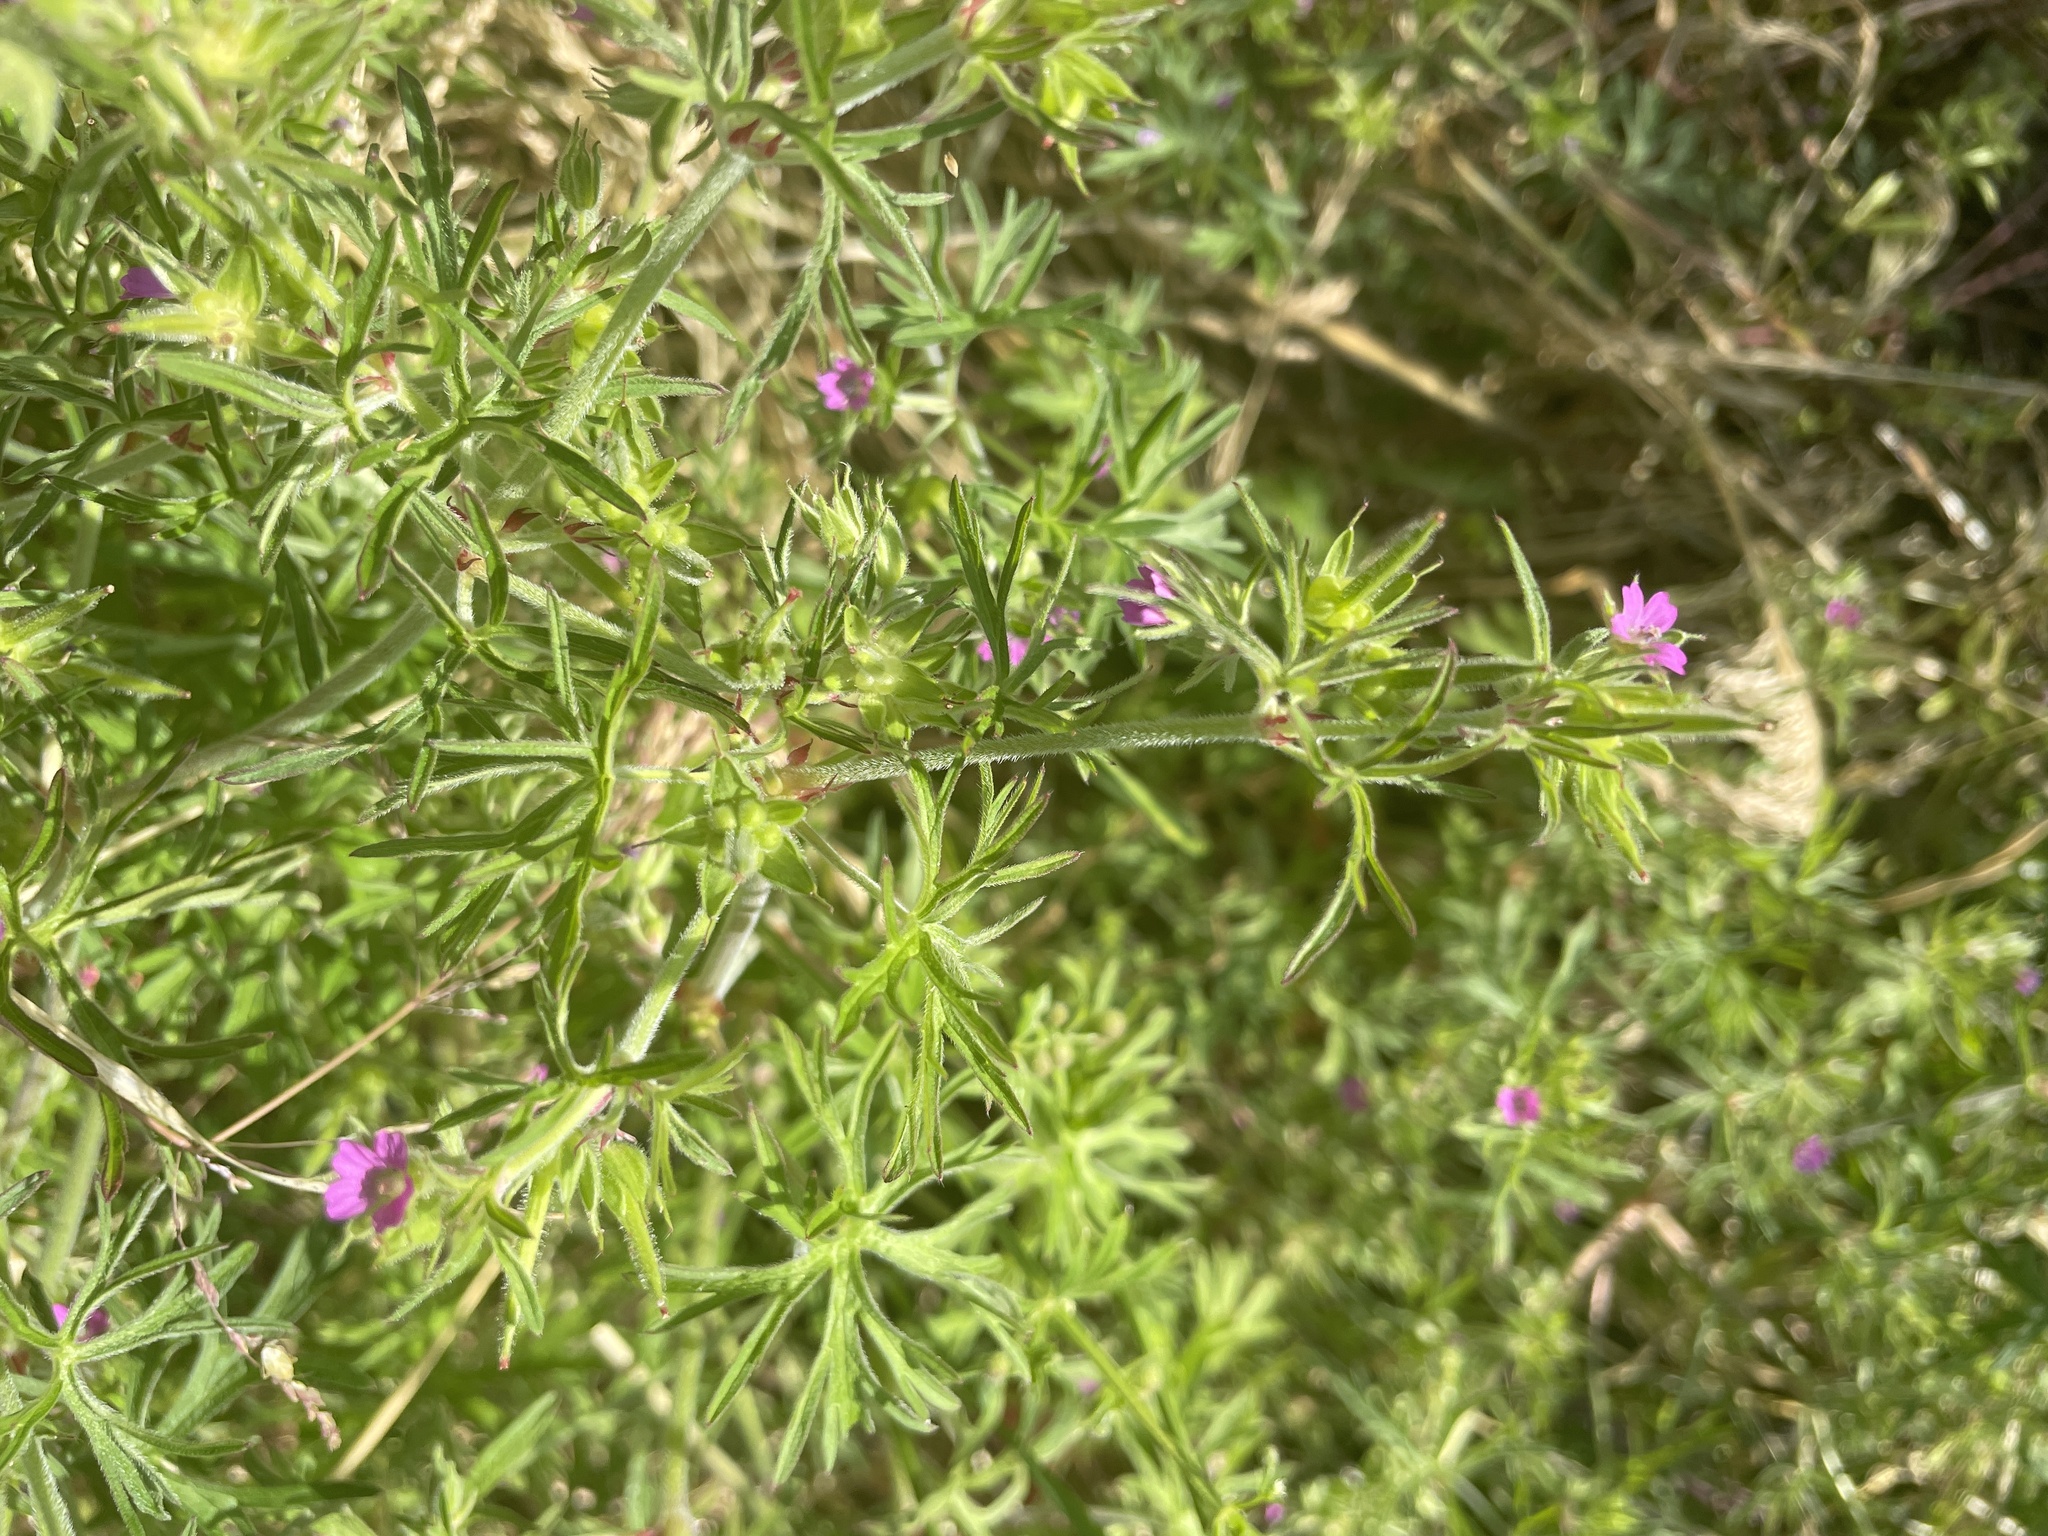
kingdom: Plantae
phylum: Tracheophyta
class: Magnoliopsida
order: Geraniales
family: Geraniaceae
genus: Geranium
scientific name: Geranium dissectum
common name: Cut-leaved crane's-bill
